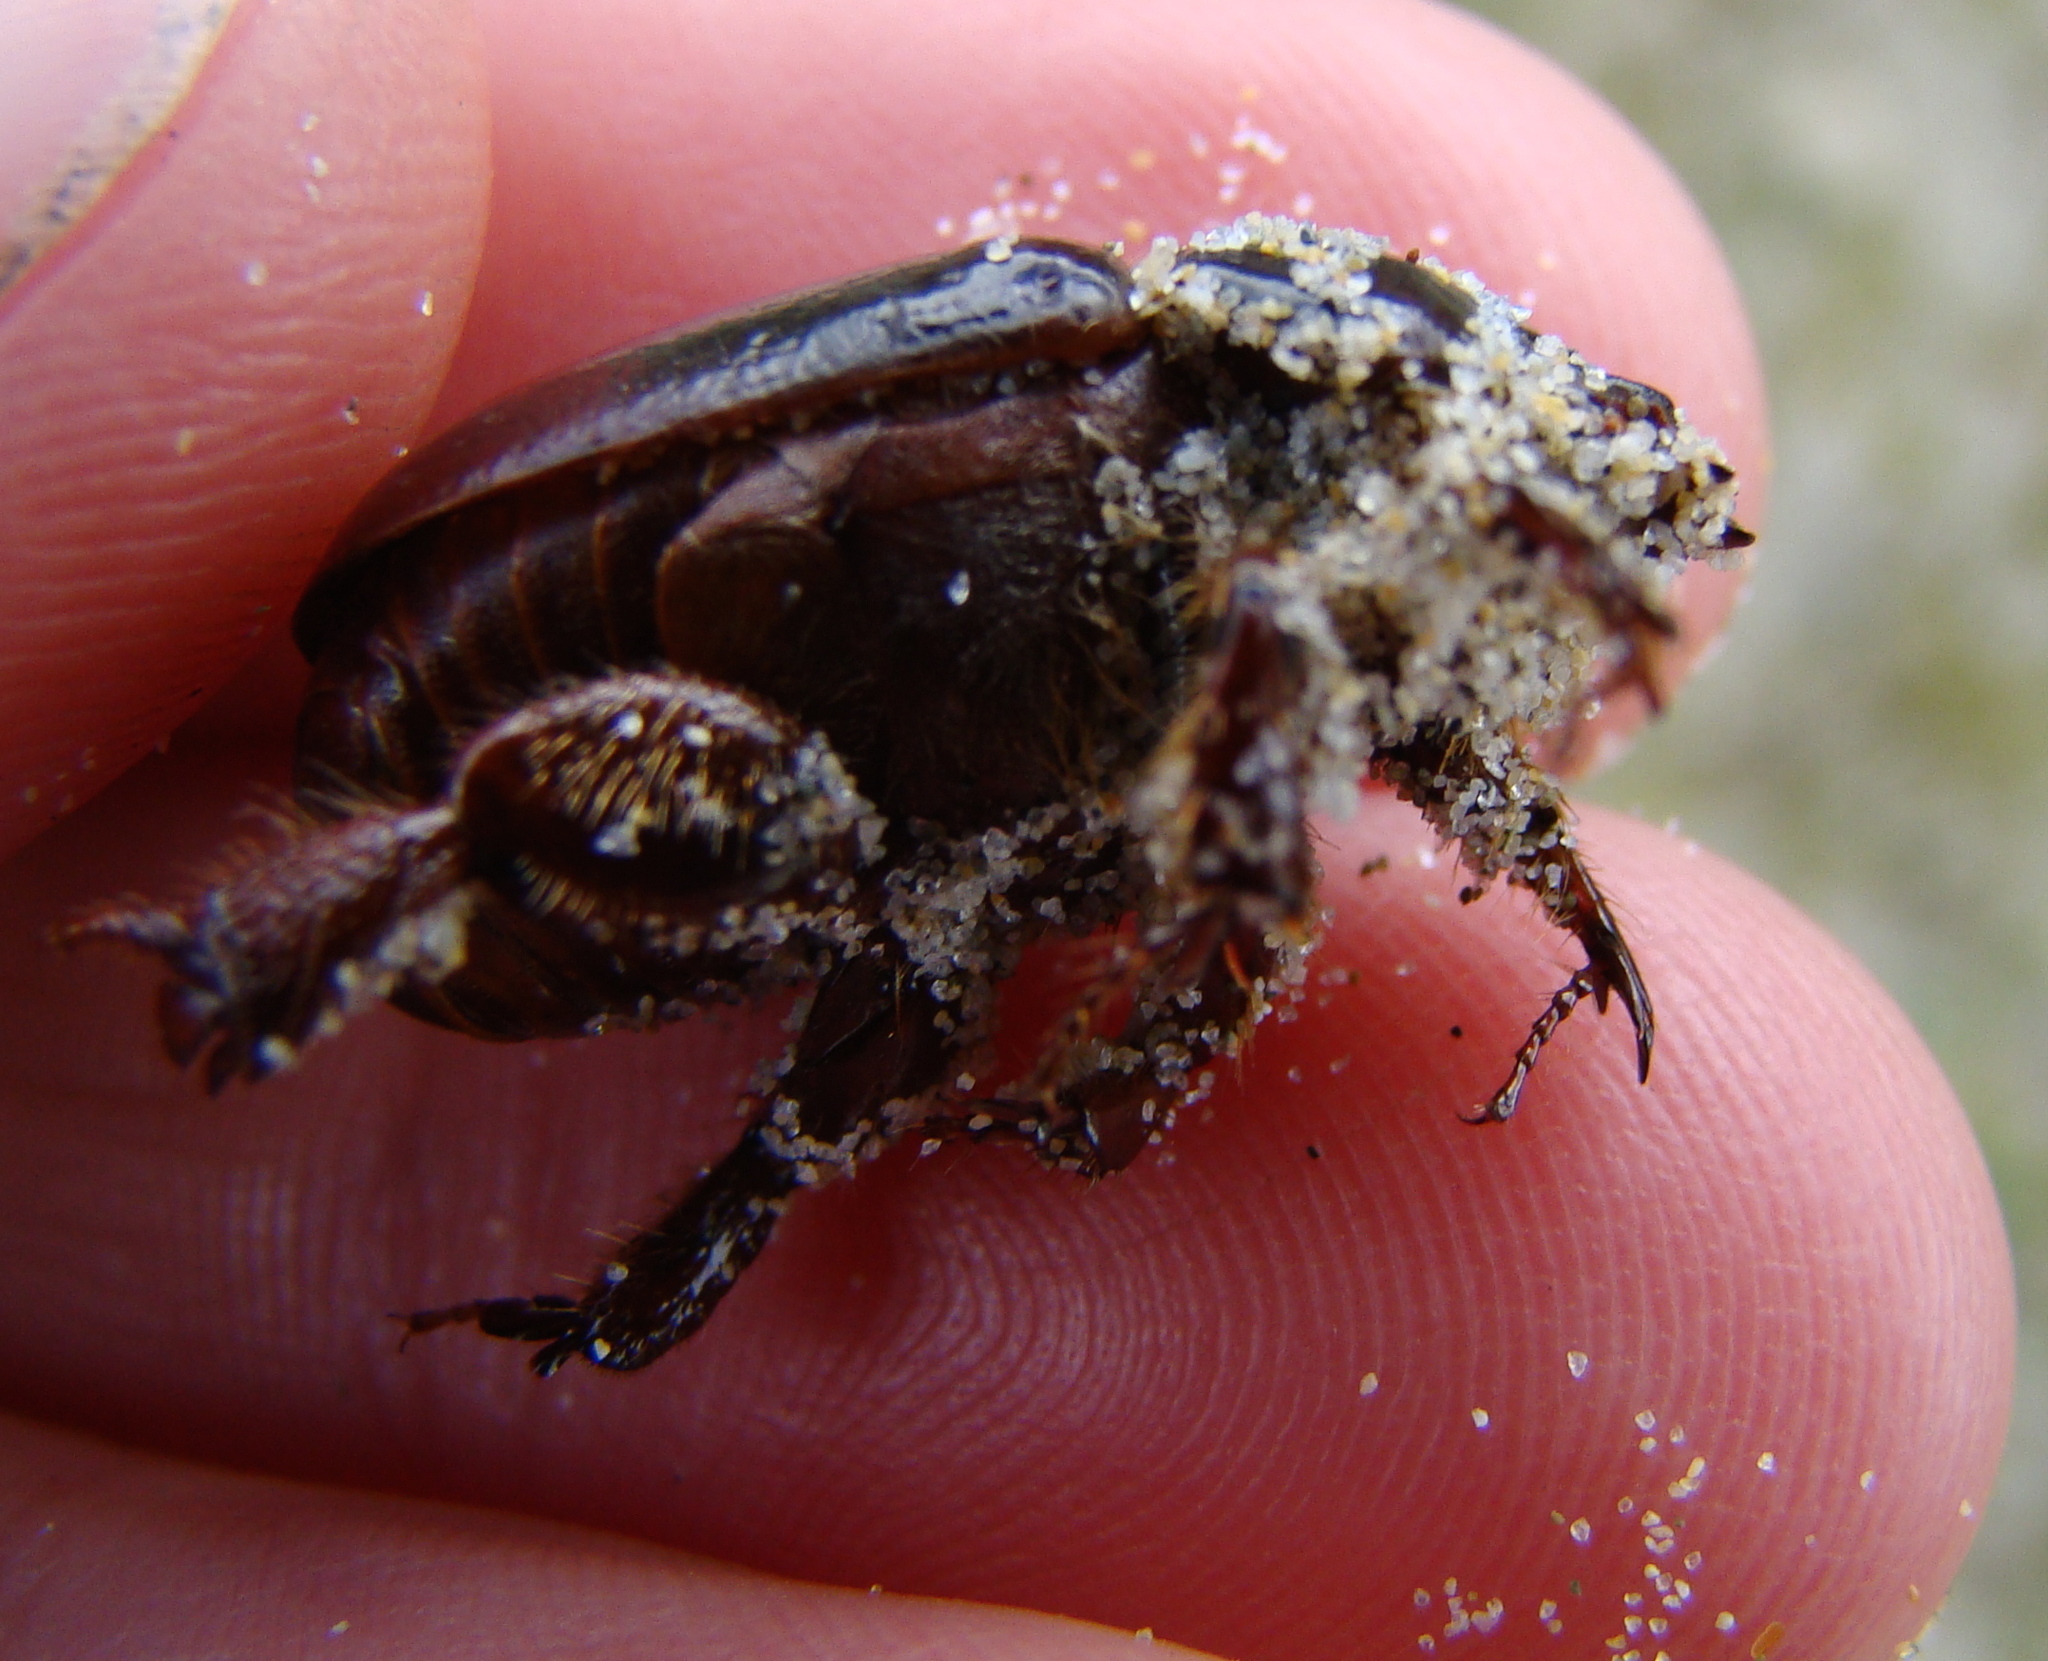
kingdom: Animalia
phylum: Arthropoda
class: Insecta
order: Coleoptera
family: Scarabaeidae
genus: Pericoptus
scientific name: Pericoptus truncatus
